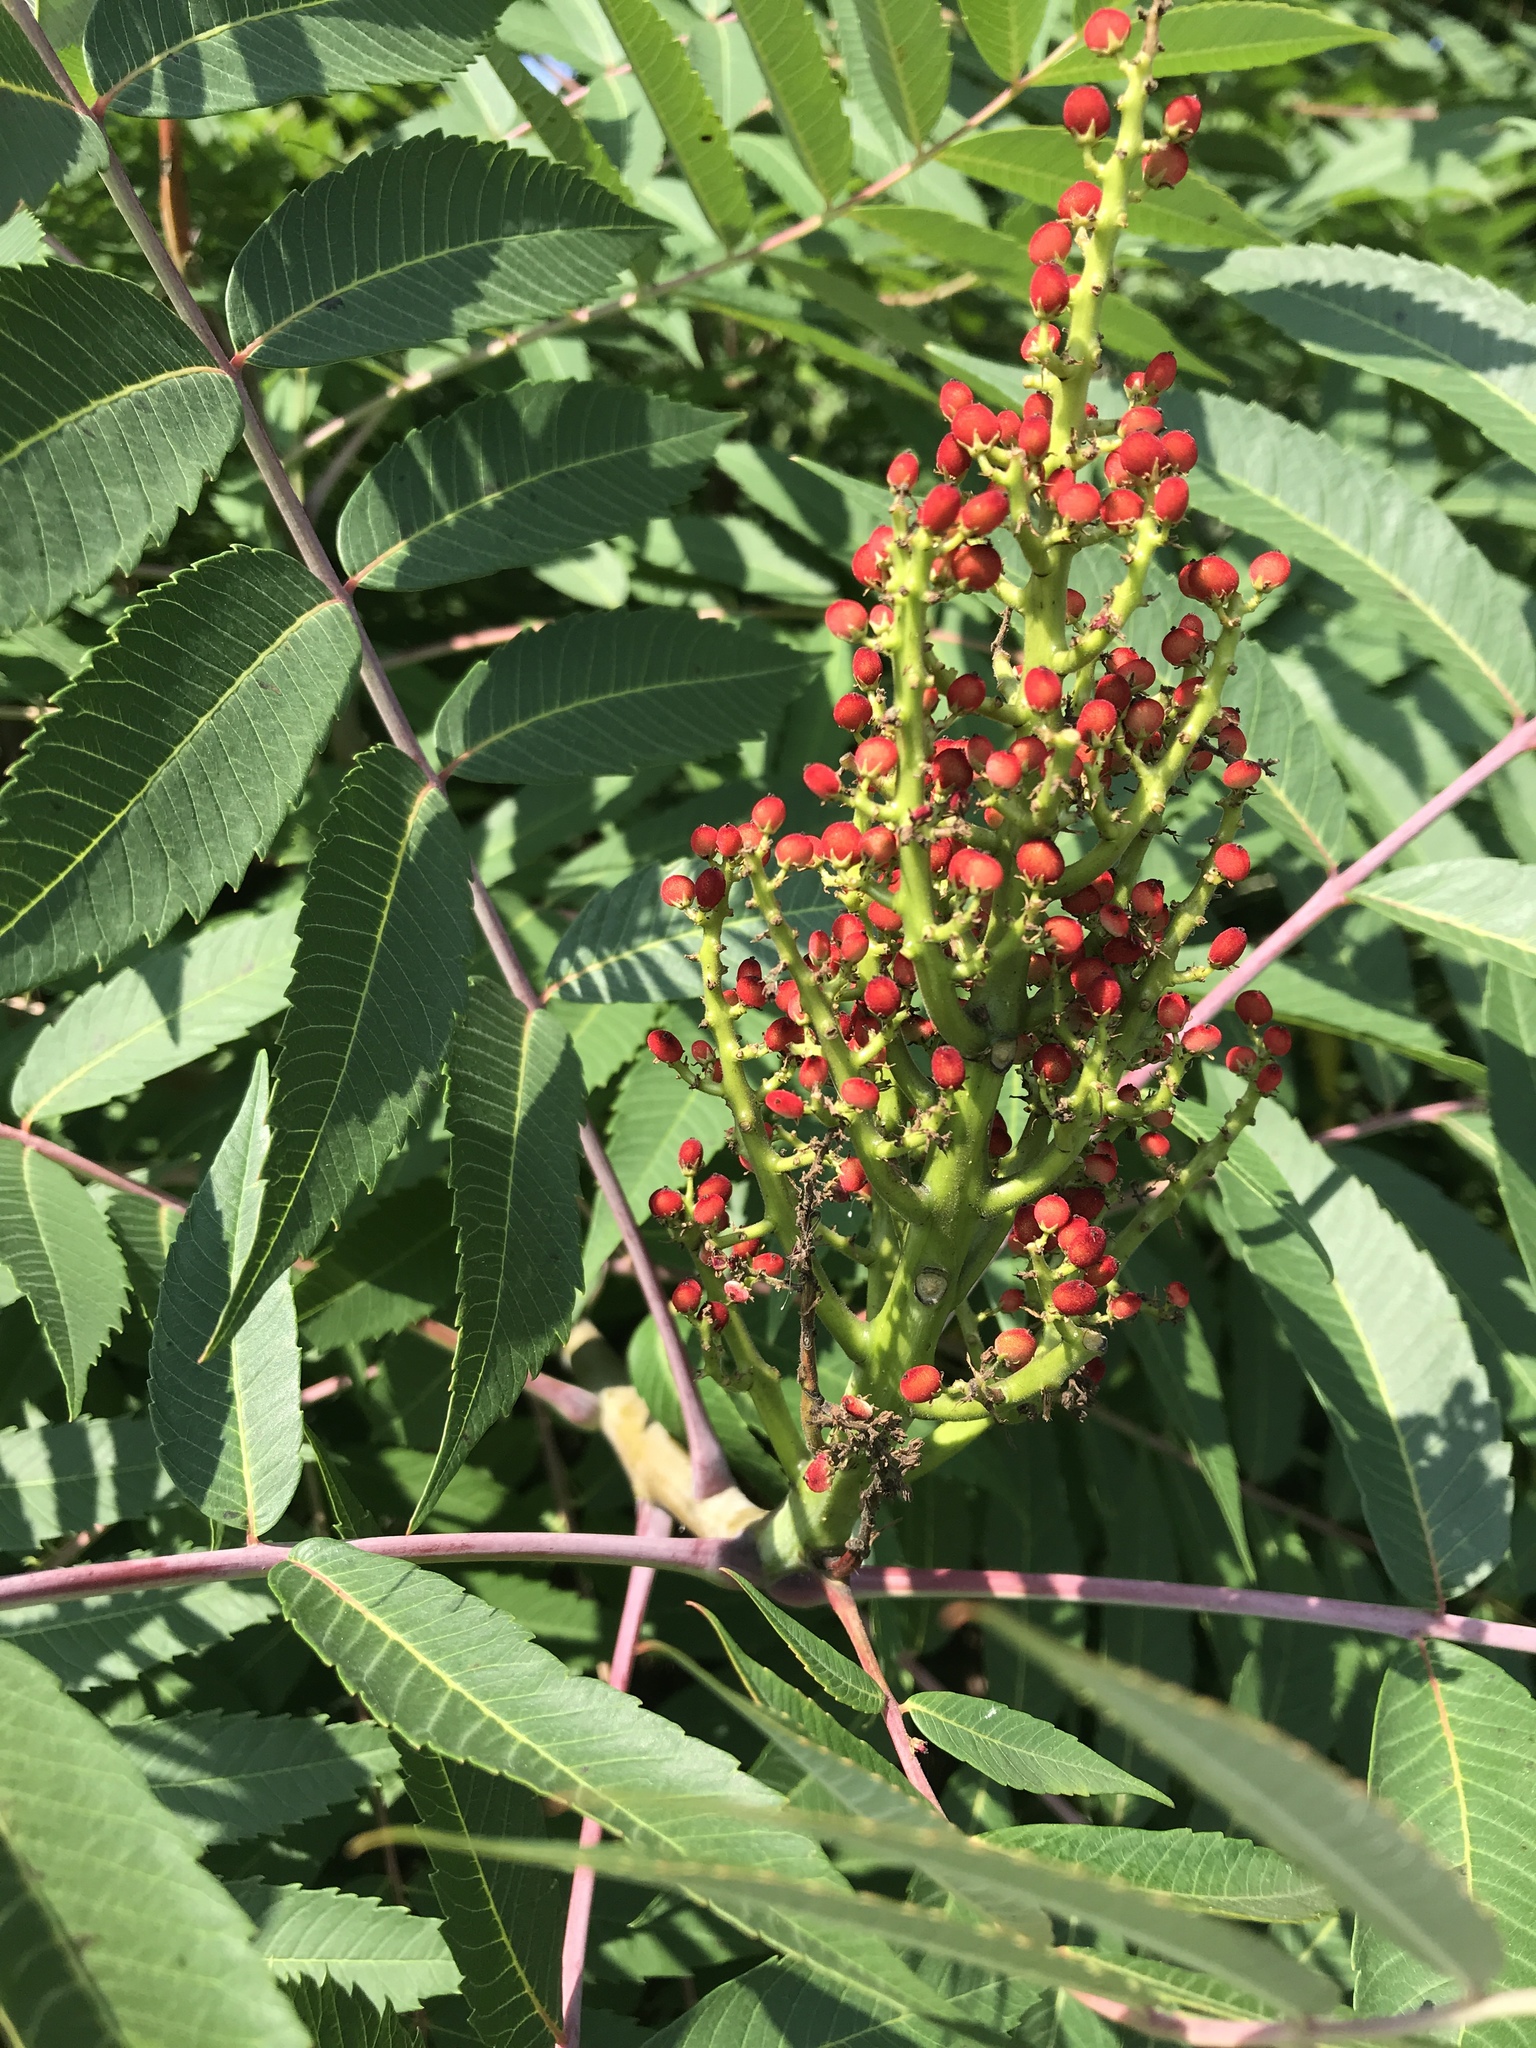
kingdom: Plantae
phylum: Tracheophyta
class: Magnoliopsida
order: Sapindales
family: Anacardiaceae
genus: Rhus
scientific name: Rhus glabra
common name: Scarlet sumac
